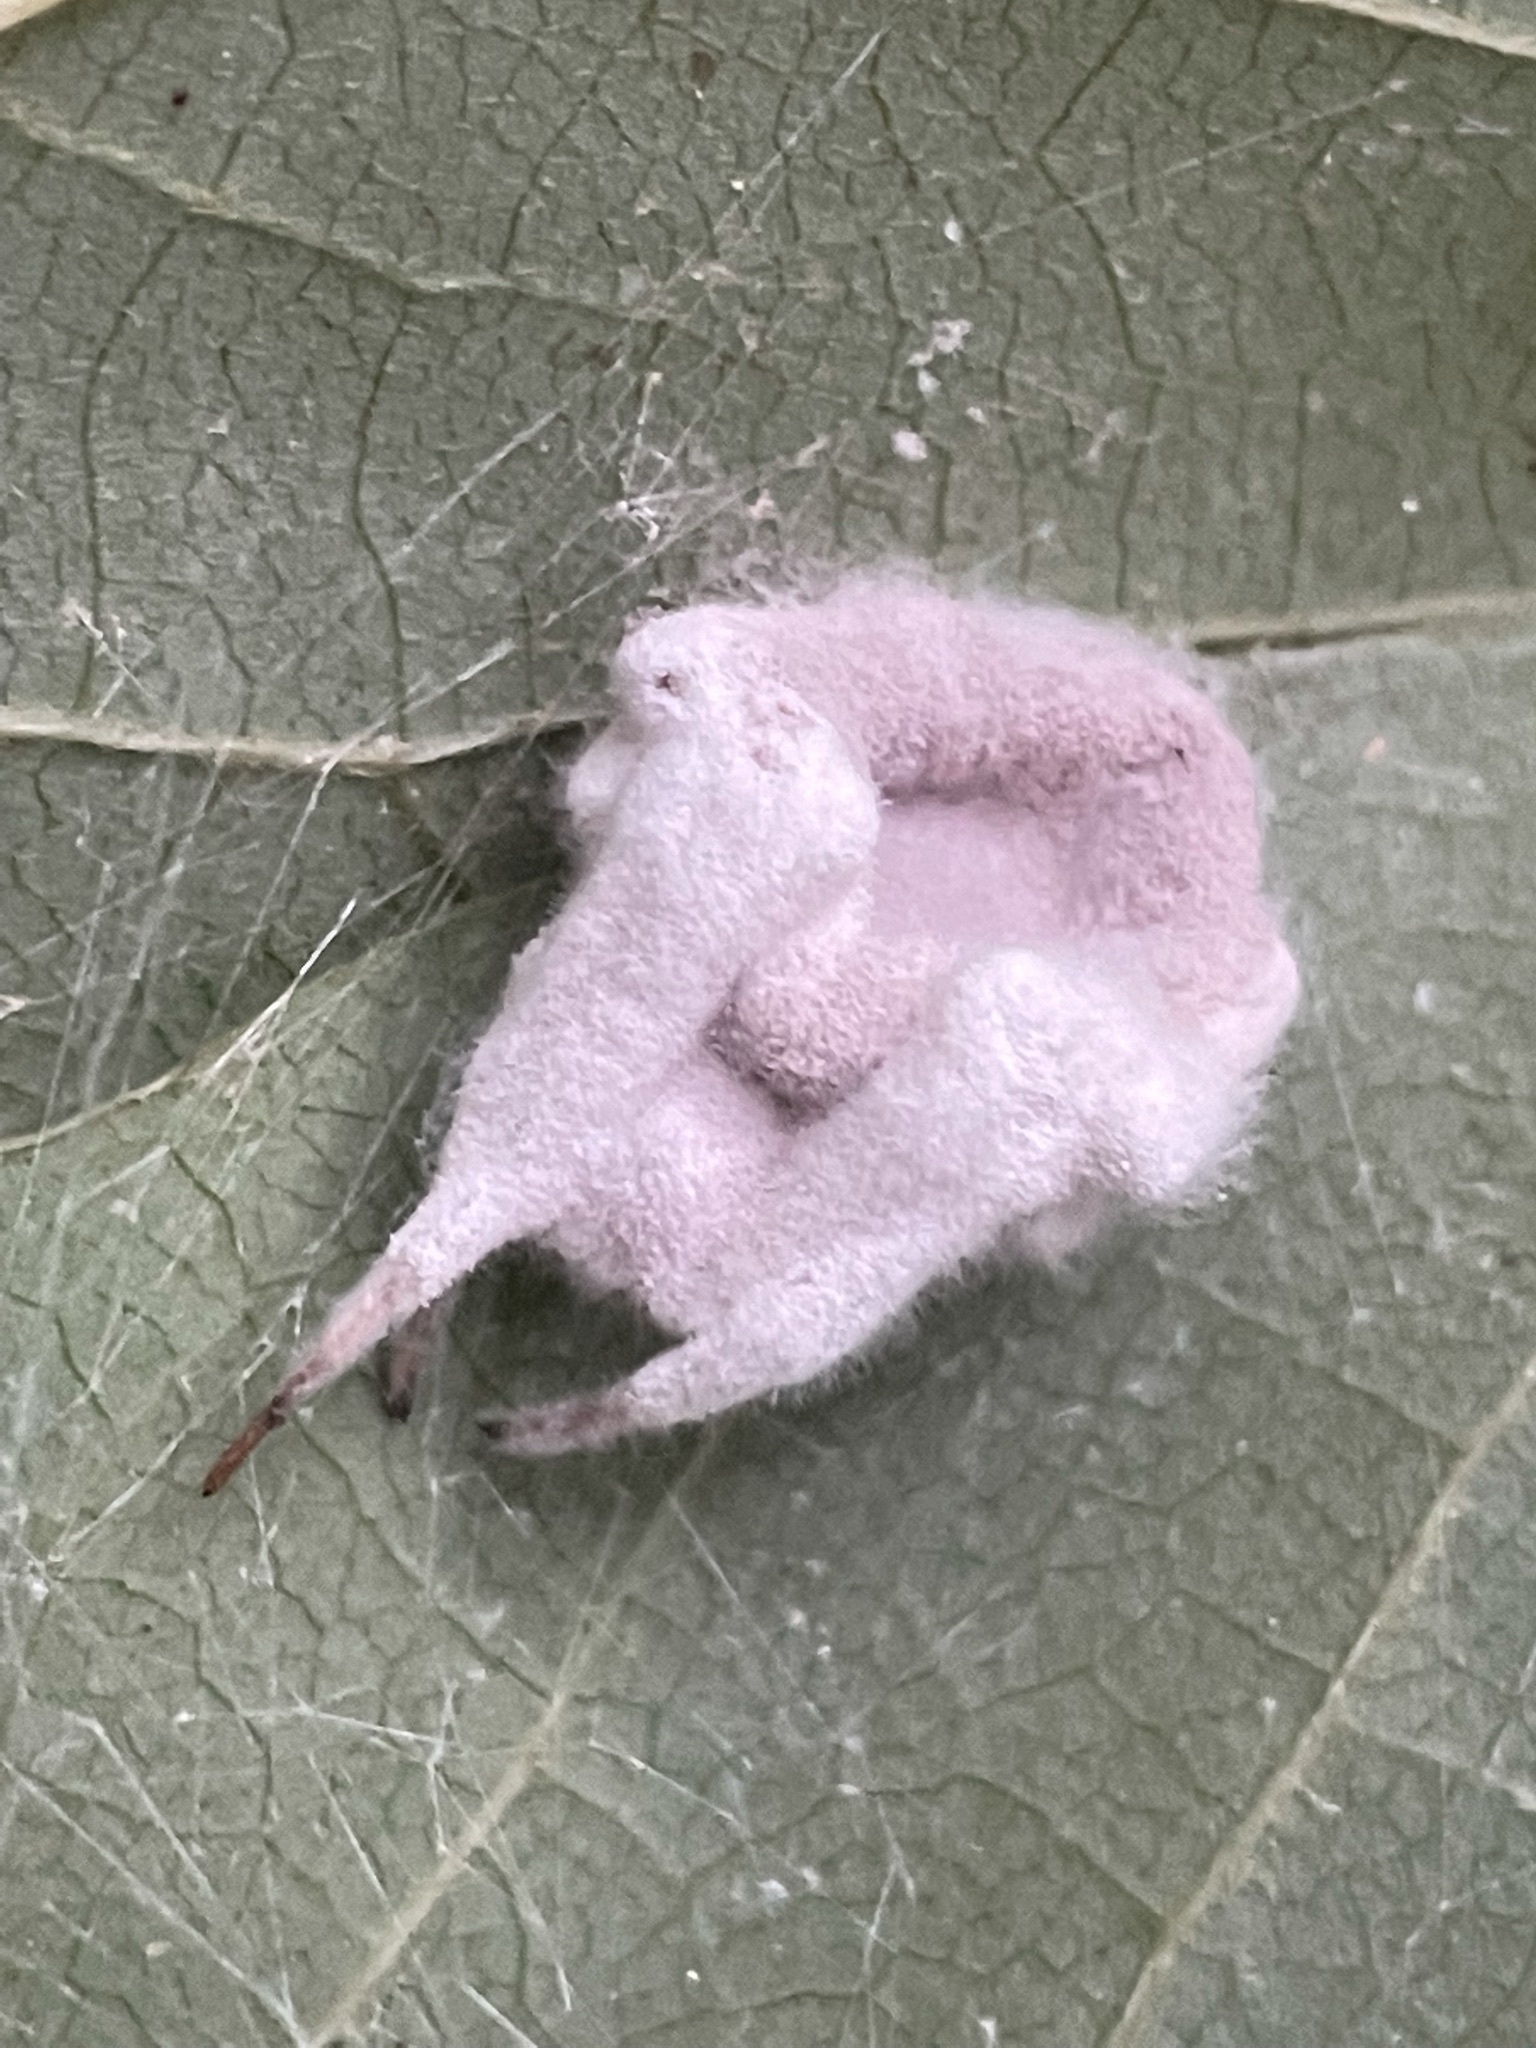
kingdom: Fungi
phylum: Ascomycota
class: Sordariomycetes
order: Hypocreales
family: Ophiocordycipitaceae
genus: Purpureocillium
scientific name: Purpureocillium atypicola
